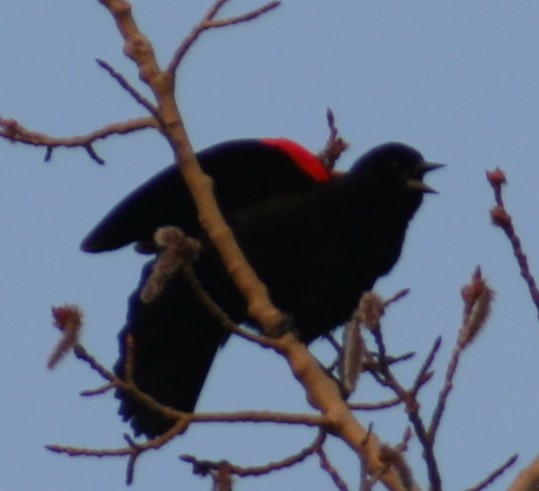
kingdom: Animalia
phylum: Chordata
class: Aves
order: Passeriformes
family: Icteridae
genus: Agelaius
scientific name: Agelaius phoeniceus
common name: Red-winged blackbird
